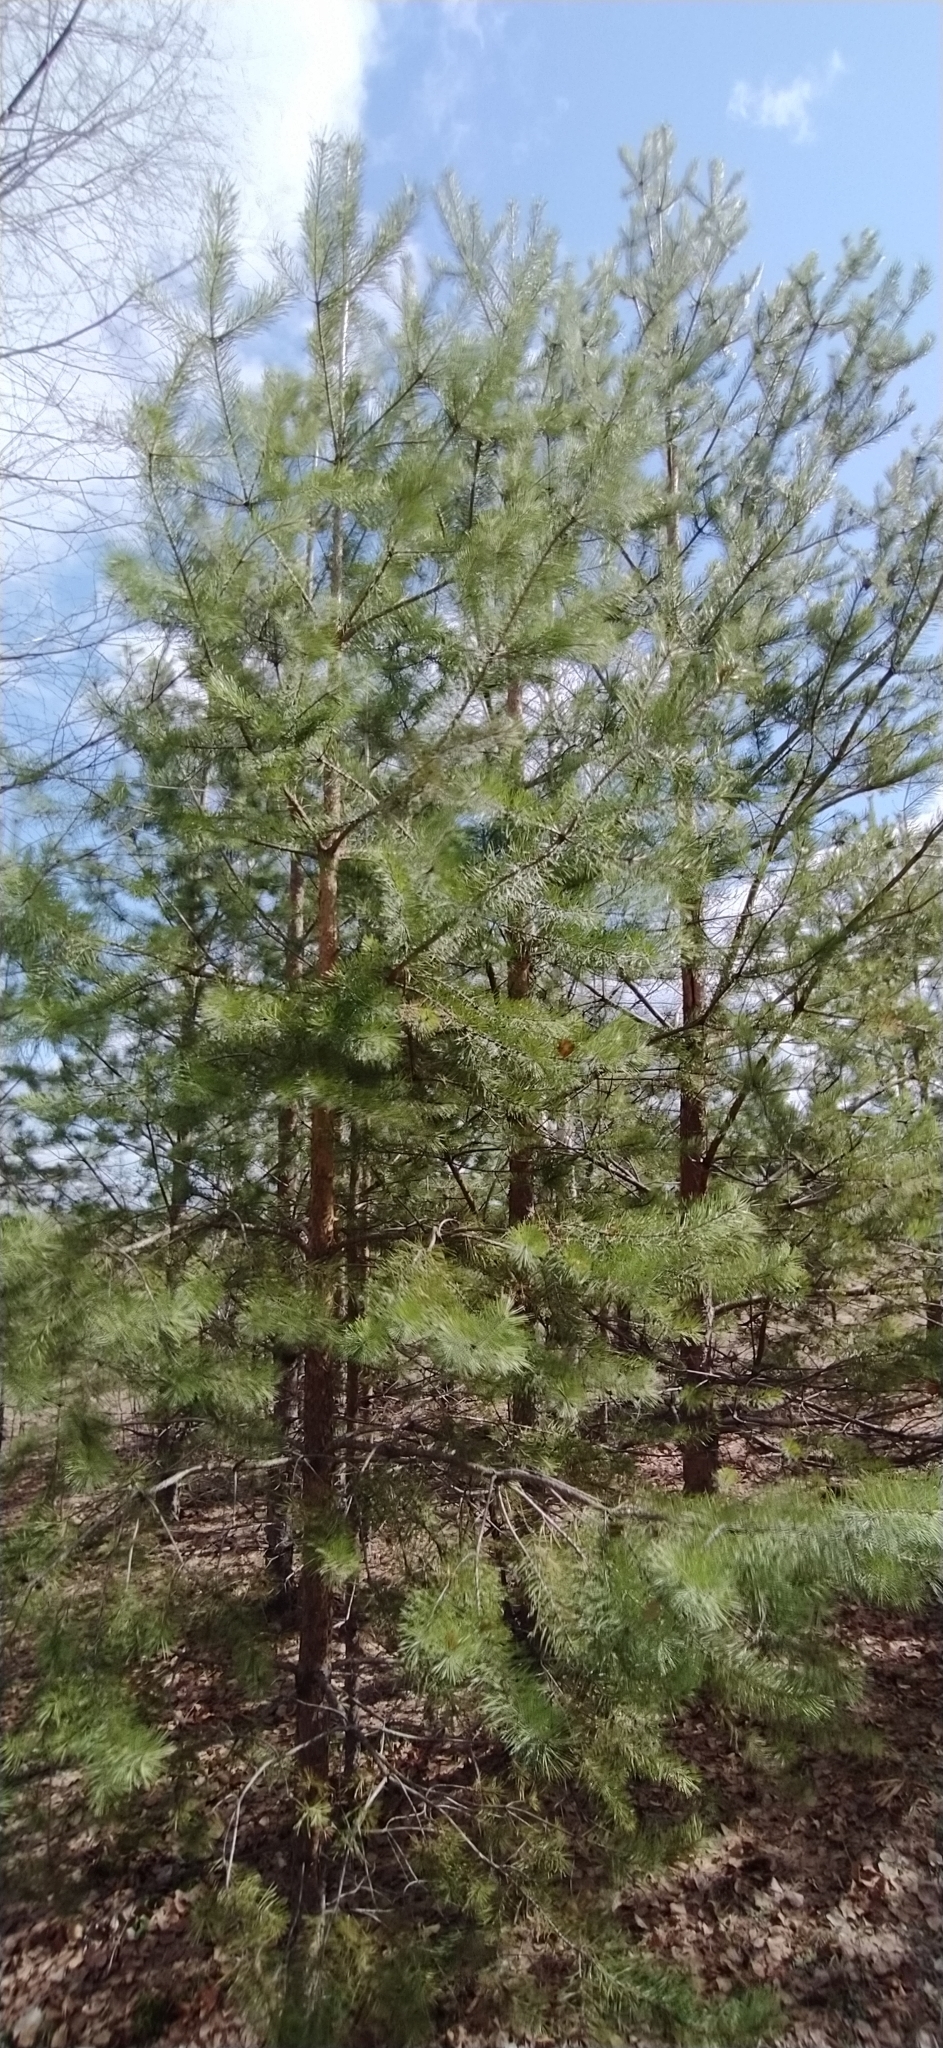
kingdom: Plantae
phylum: Tracheophyta
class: Pinopsida
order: Pinales
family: Pinaceae
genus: Pinus
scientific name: Pinus sylvestris
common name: Scots pine
